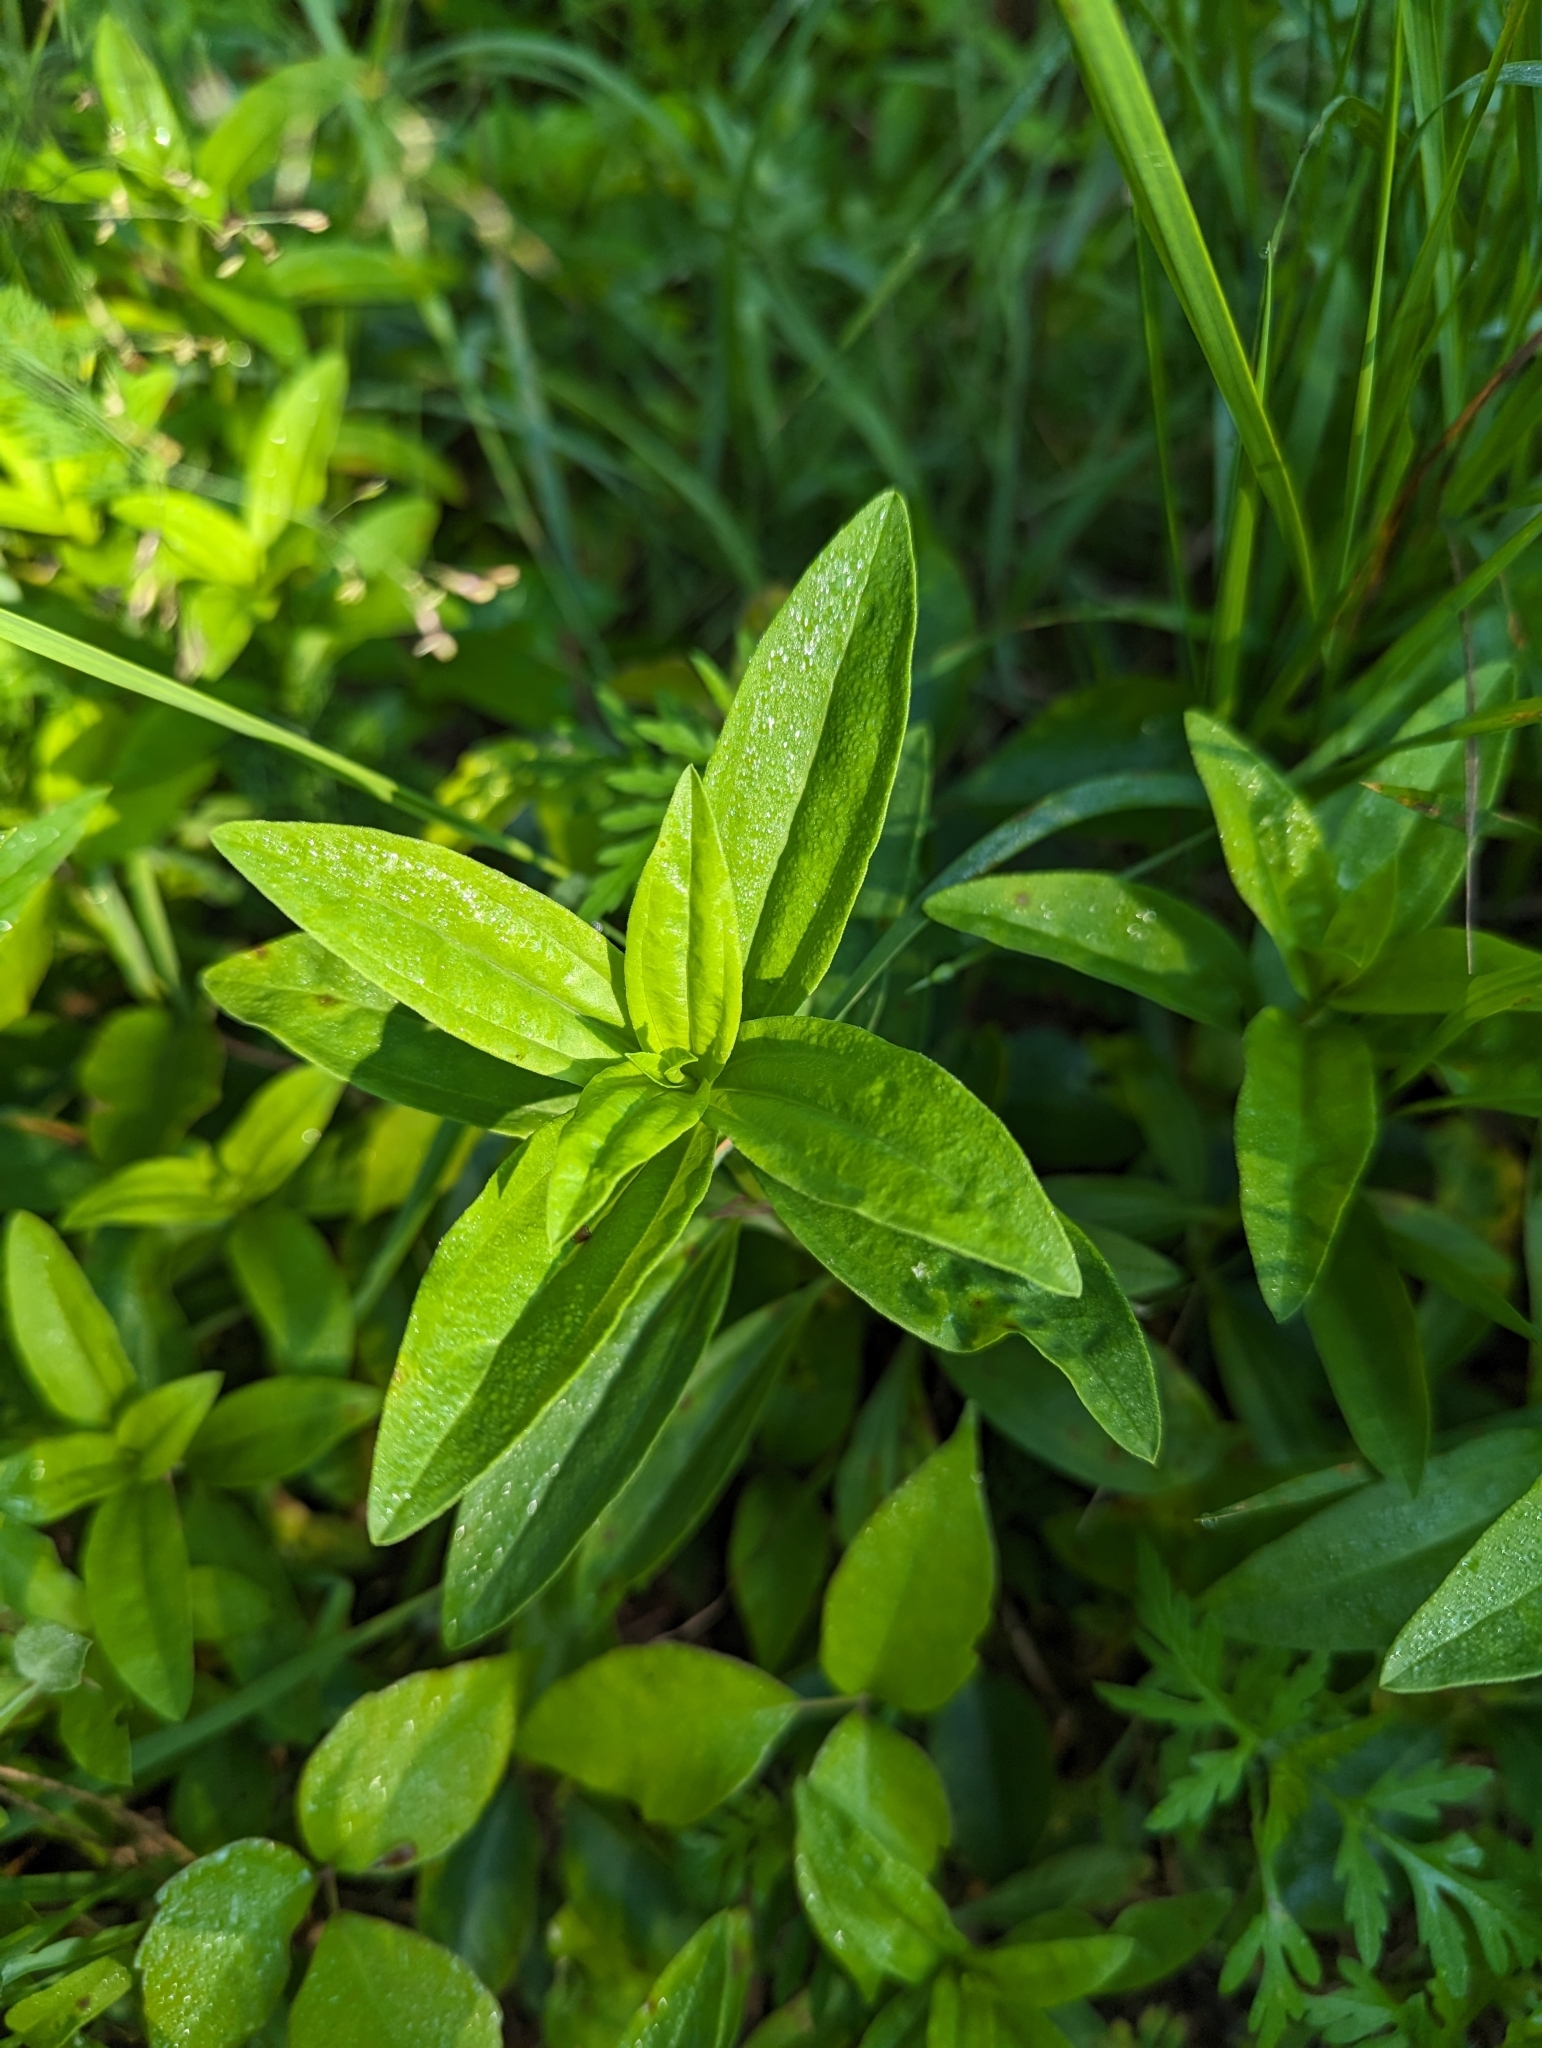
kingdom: Plantae
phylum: Tracheophyta
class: Magnoliopsida
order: Caryophyllales
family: Caryophyllaceae
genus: Saponaria
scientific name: Saponaria officinalis
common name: Soapwort
